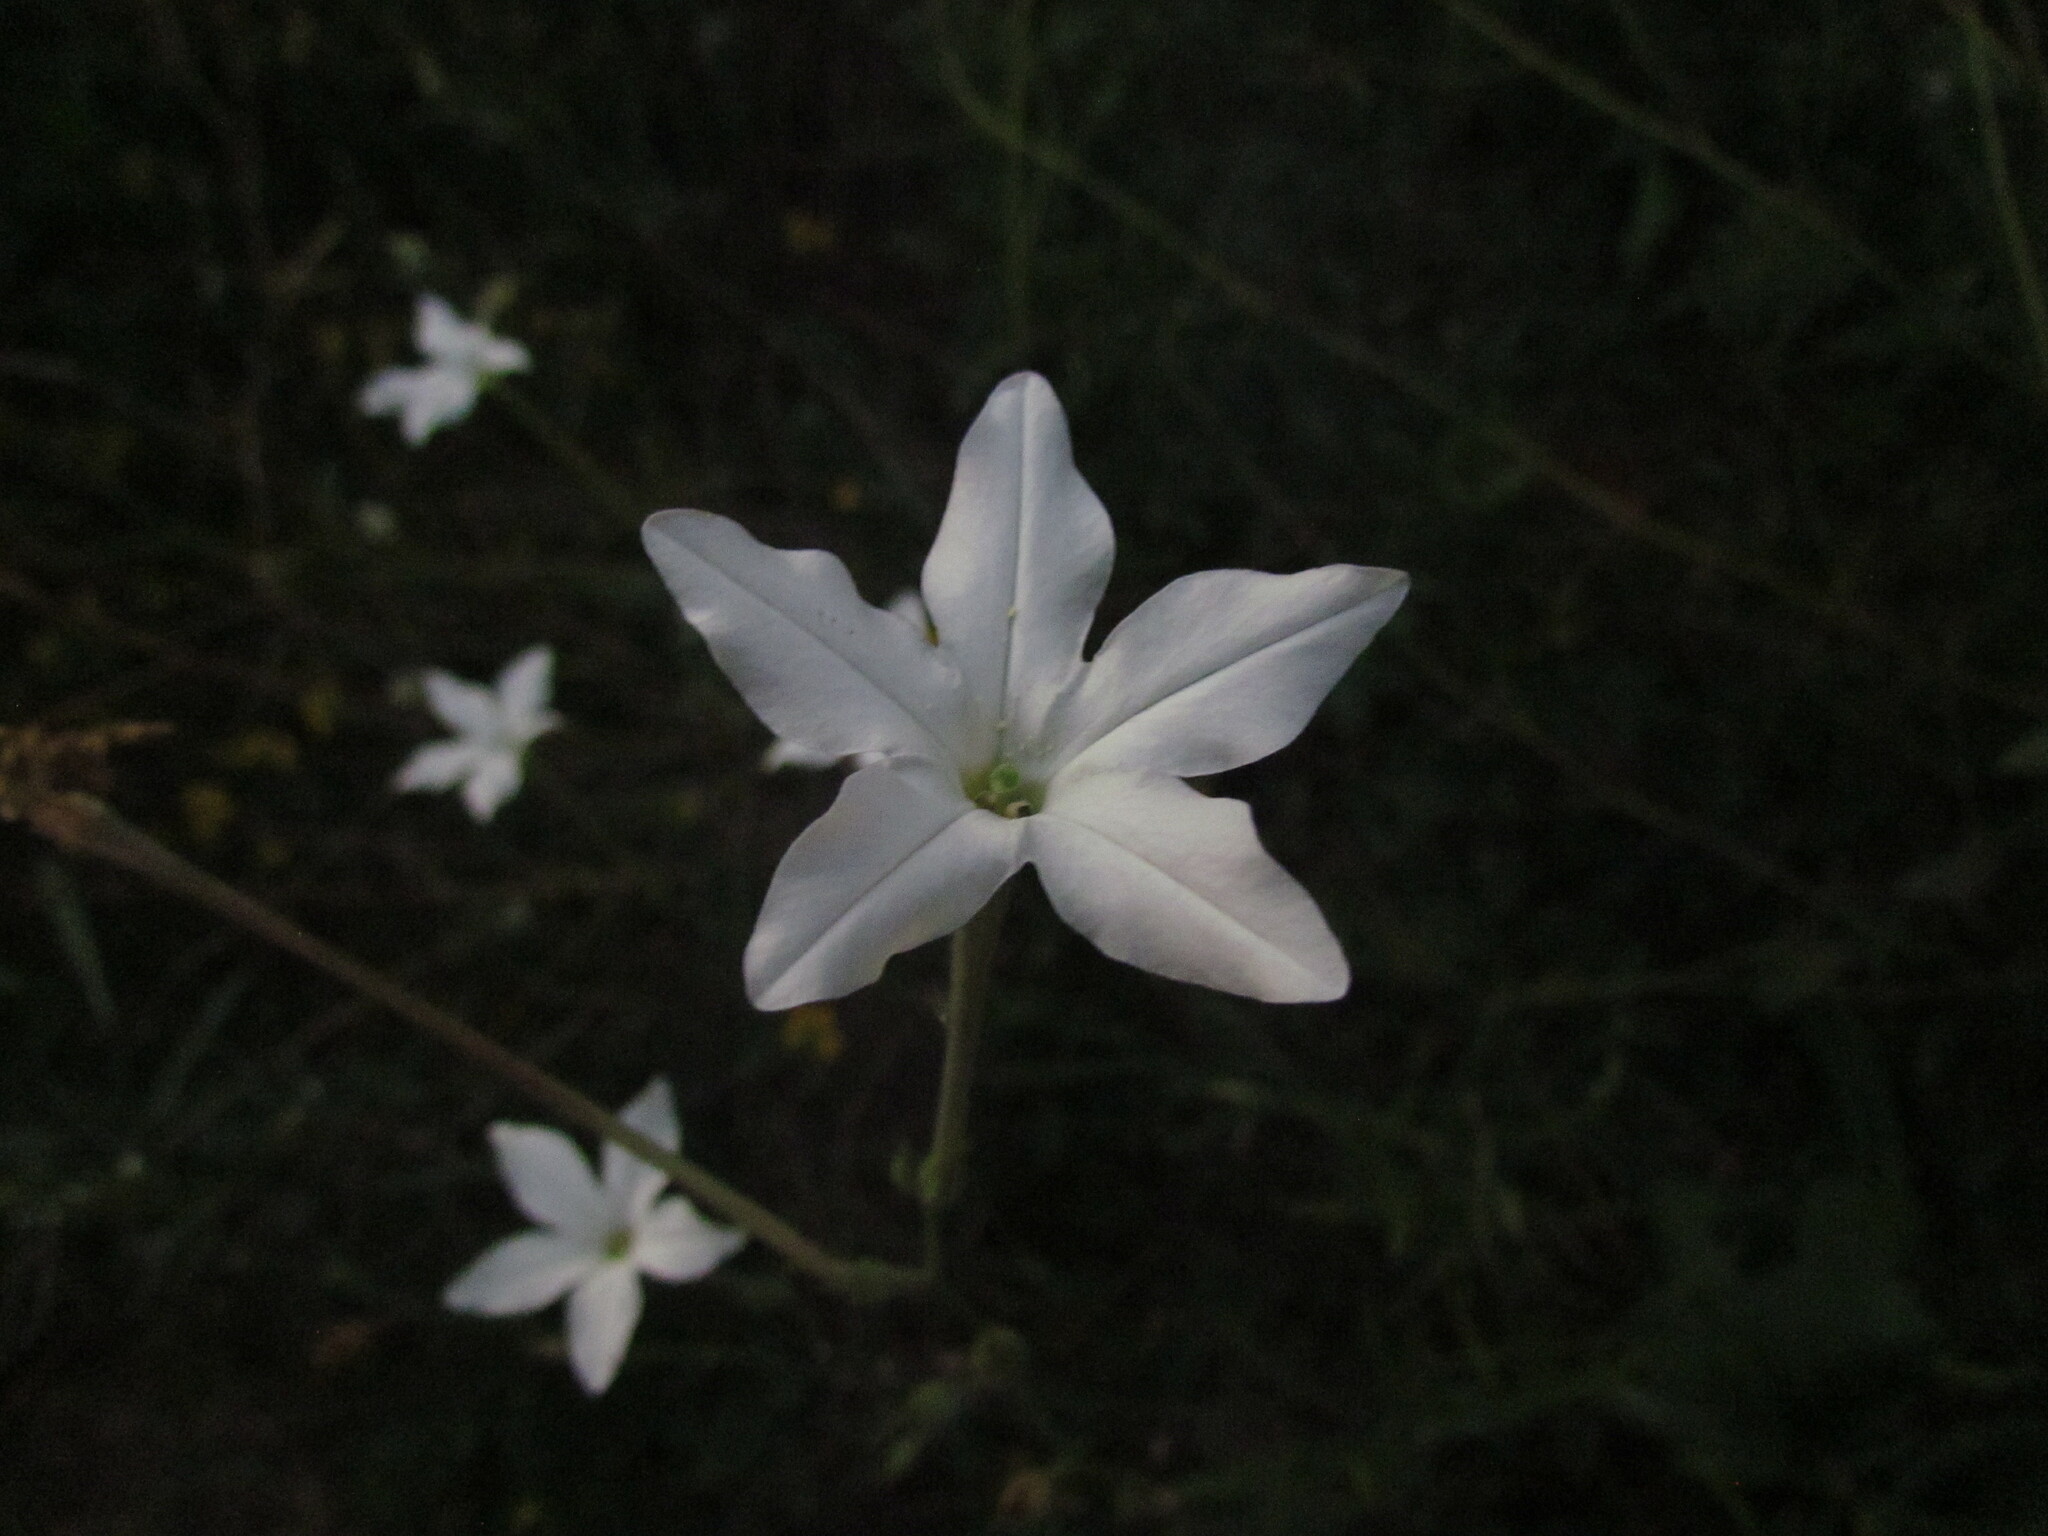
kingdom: Plantae
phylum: Tracheophyta
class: Magnoliopsida
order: Solanales
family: Solanaceae
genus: Nicotiana
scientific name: Nicotiana longiflora
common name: Long-flowered tobacco
